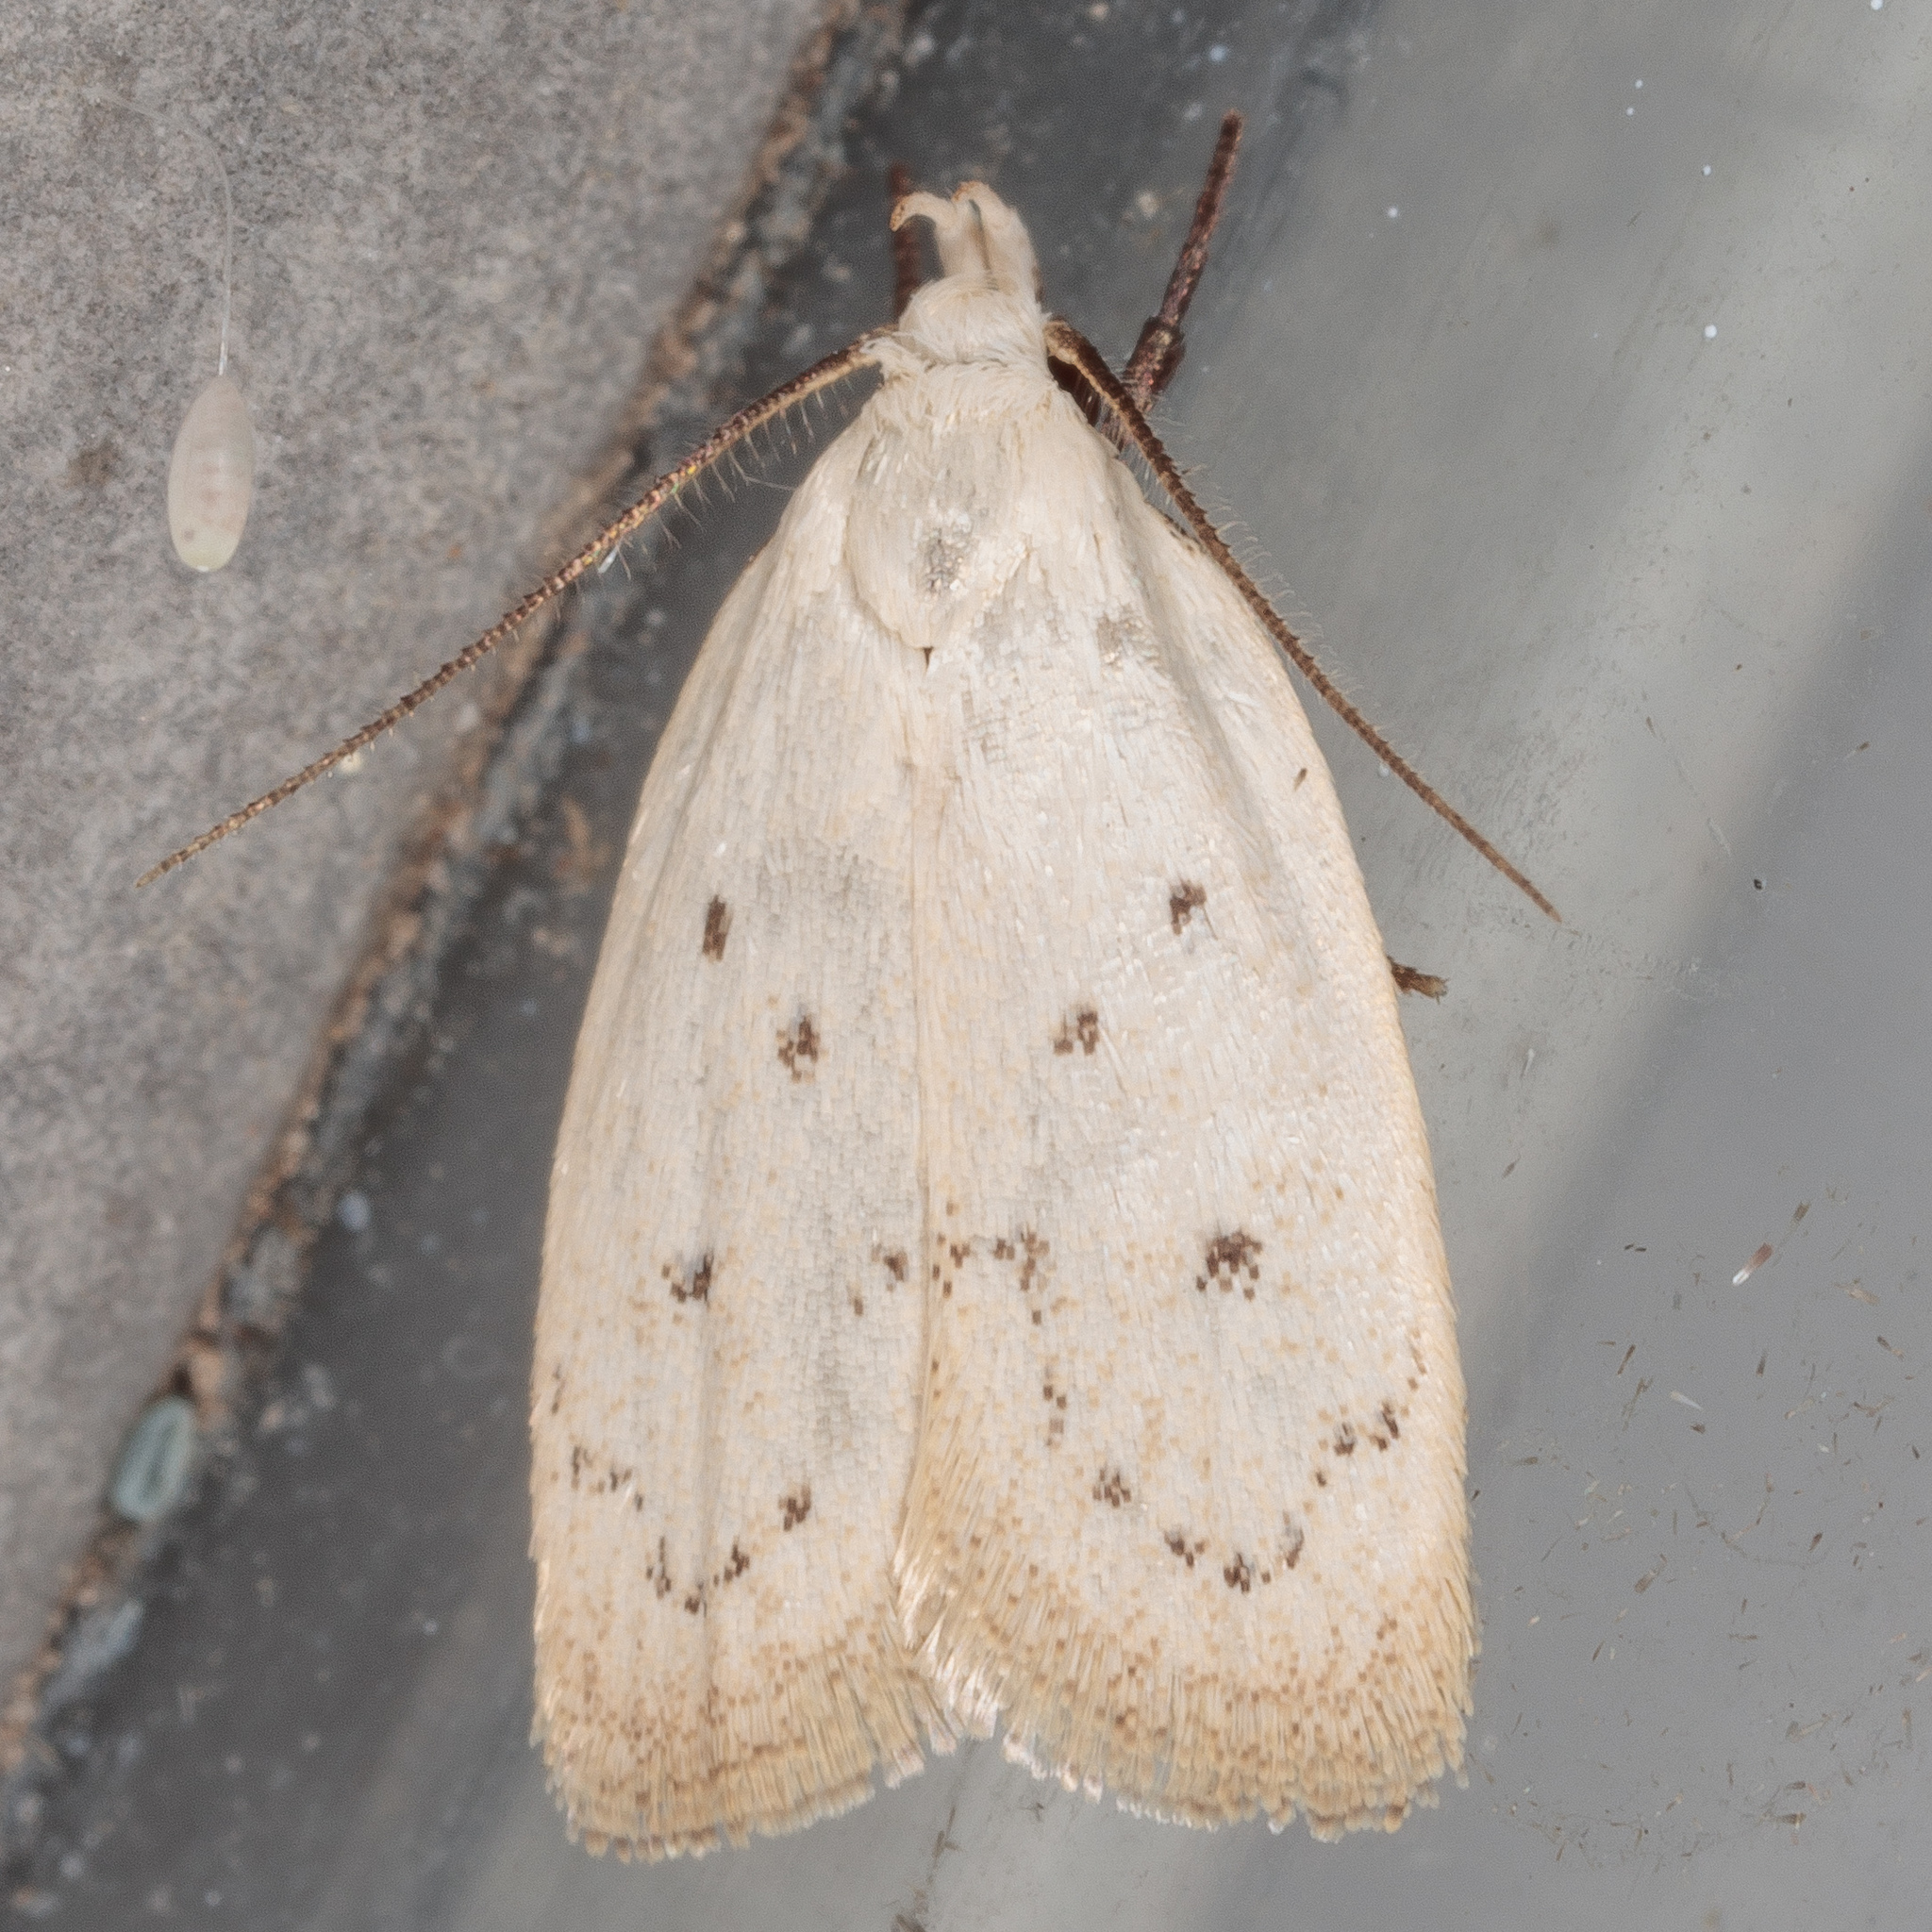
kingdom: Animalia
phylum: Arthropoda
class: Insecta
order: Lepidoptera
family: Oecophoridae
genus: Inga
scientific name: Inga cretacea
